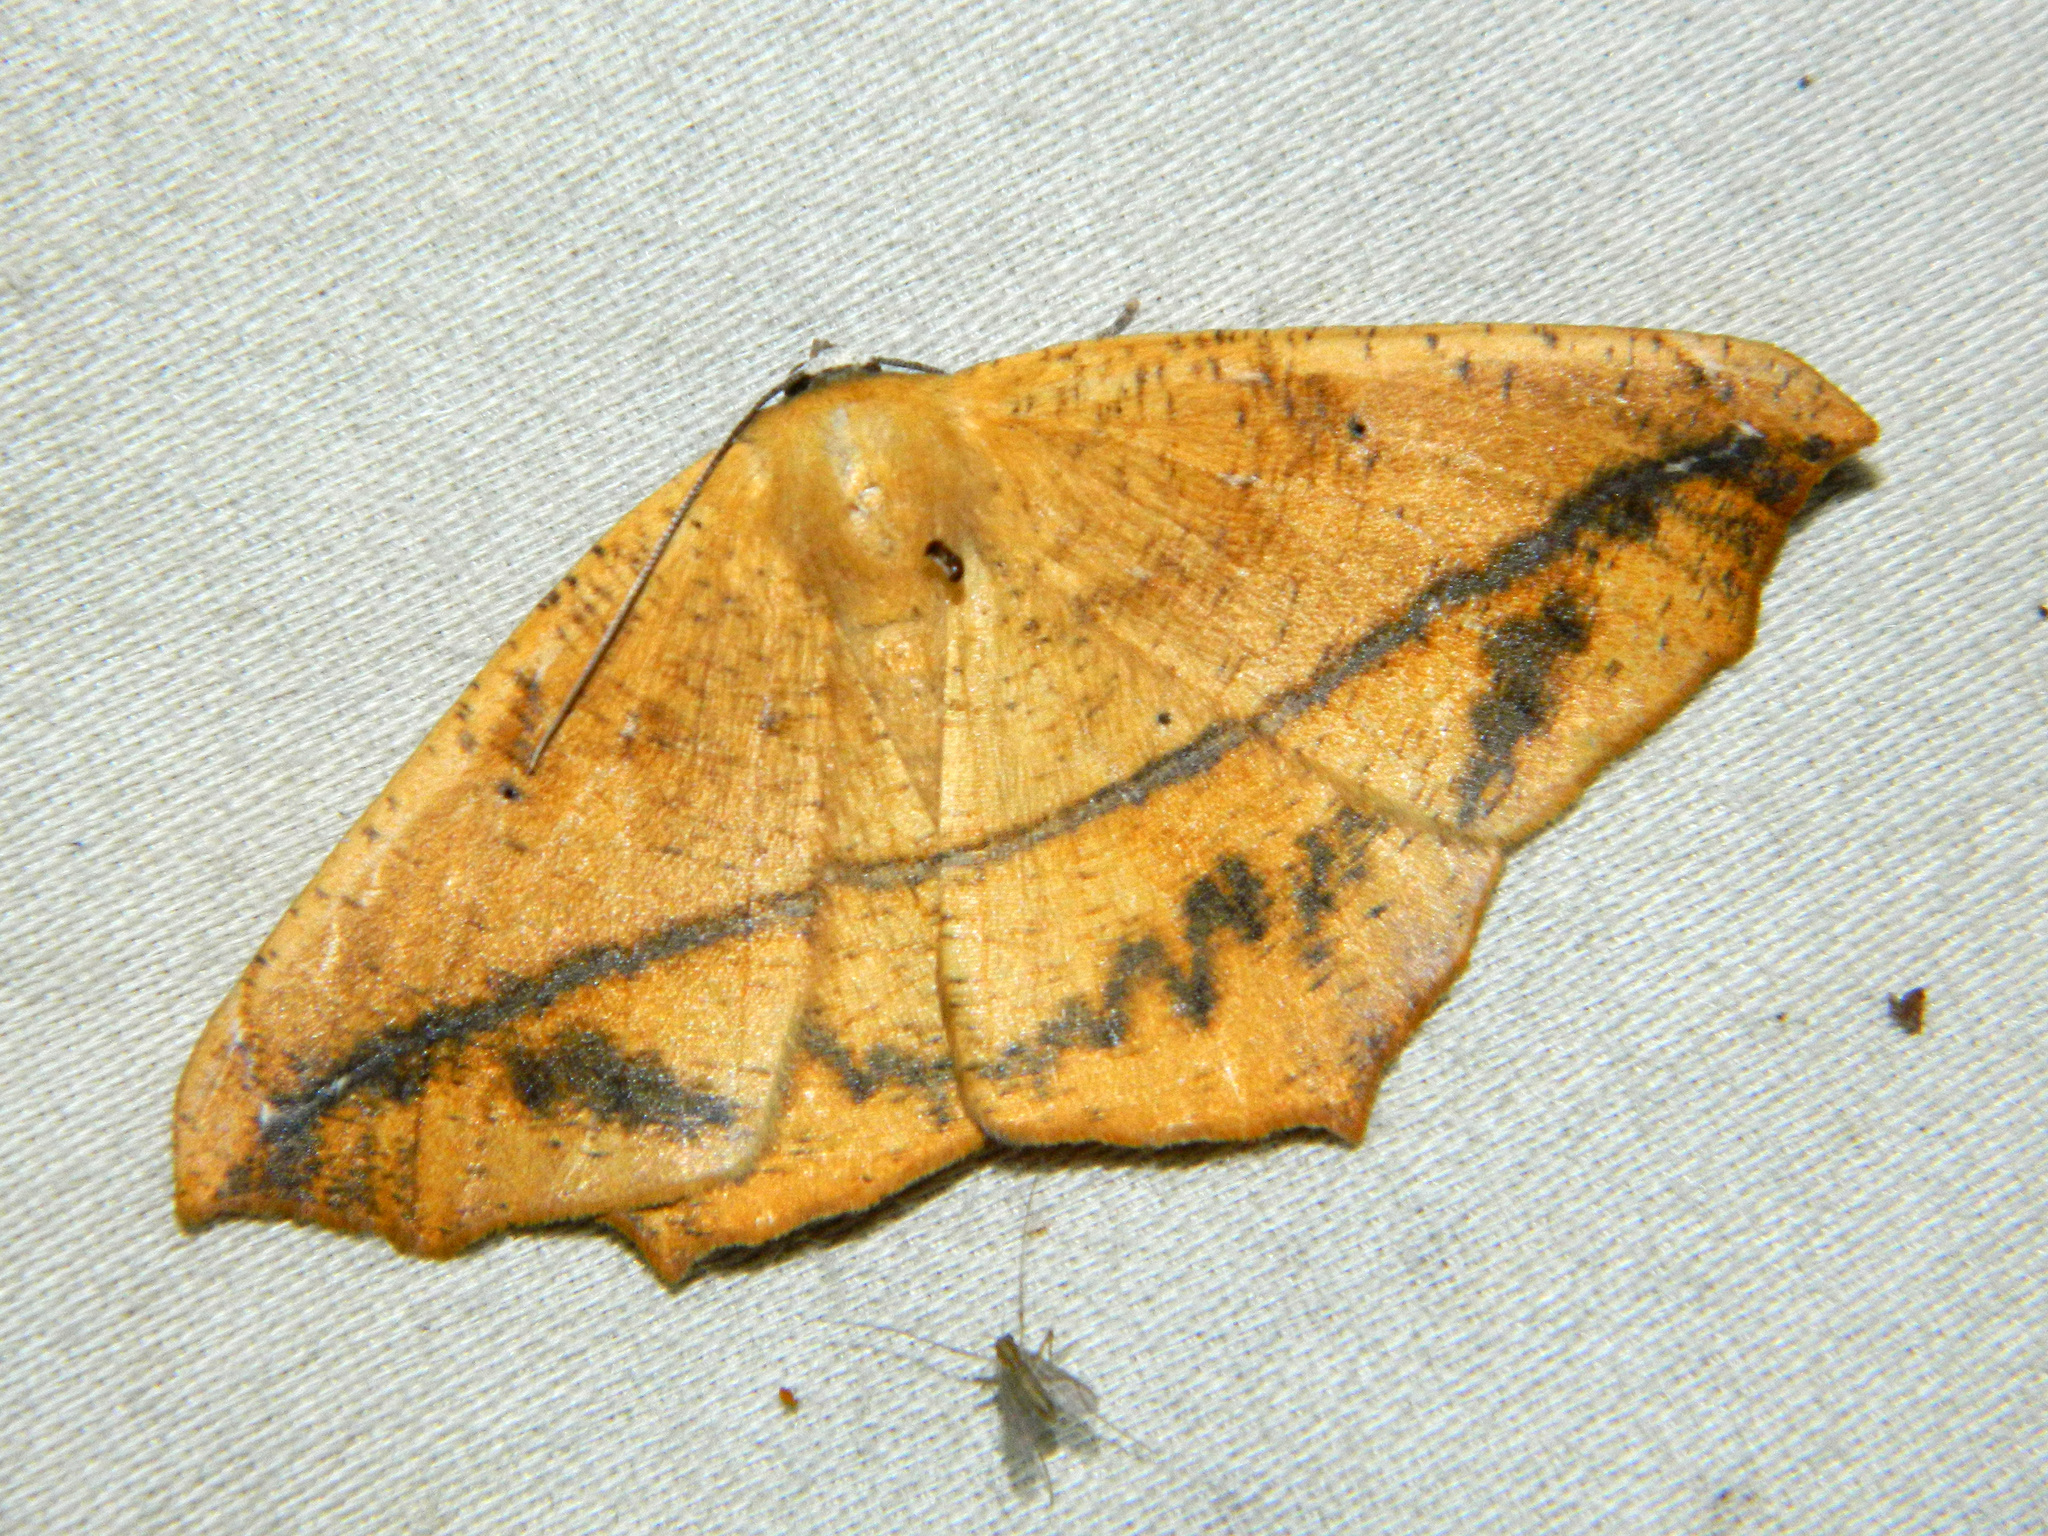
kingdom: Animalia
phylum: Arthropoda
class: Insecta
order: Lepidoptera
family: Geometridae
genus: Prochoerodes
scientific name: Prochoerodes lineola
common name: Large maple spanworm
